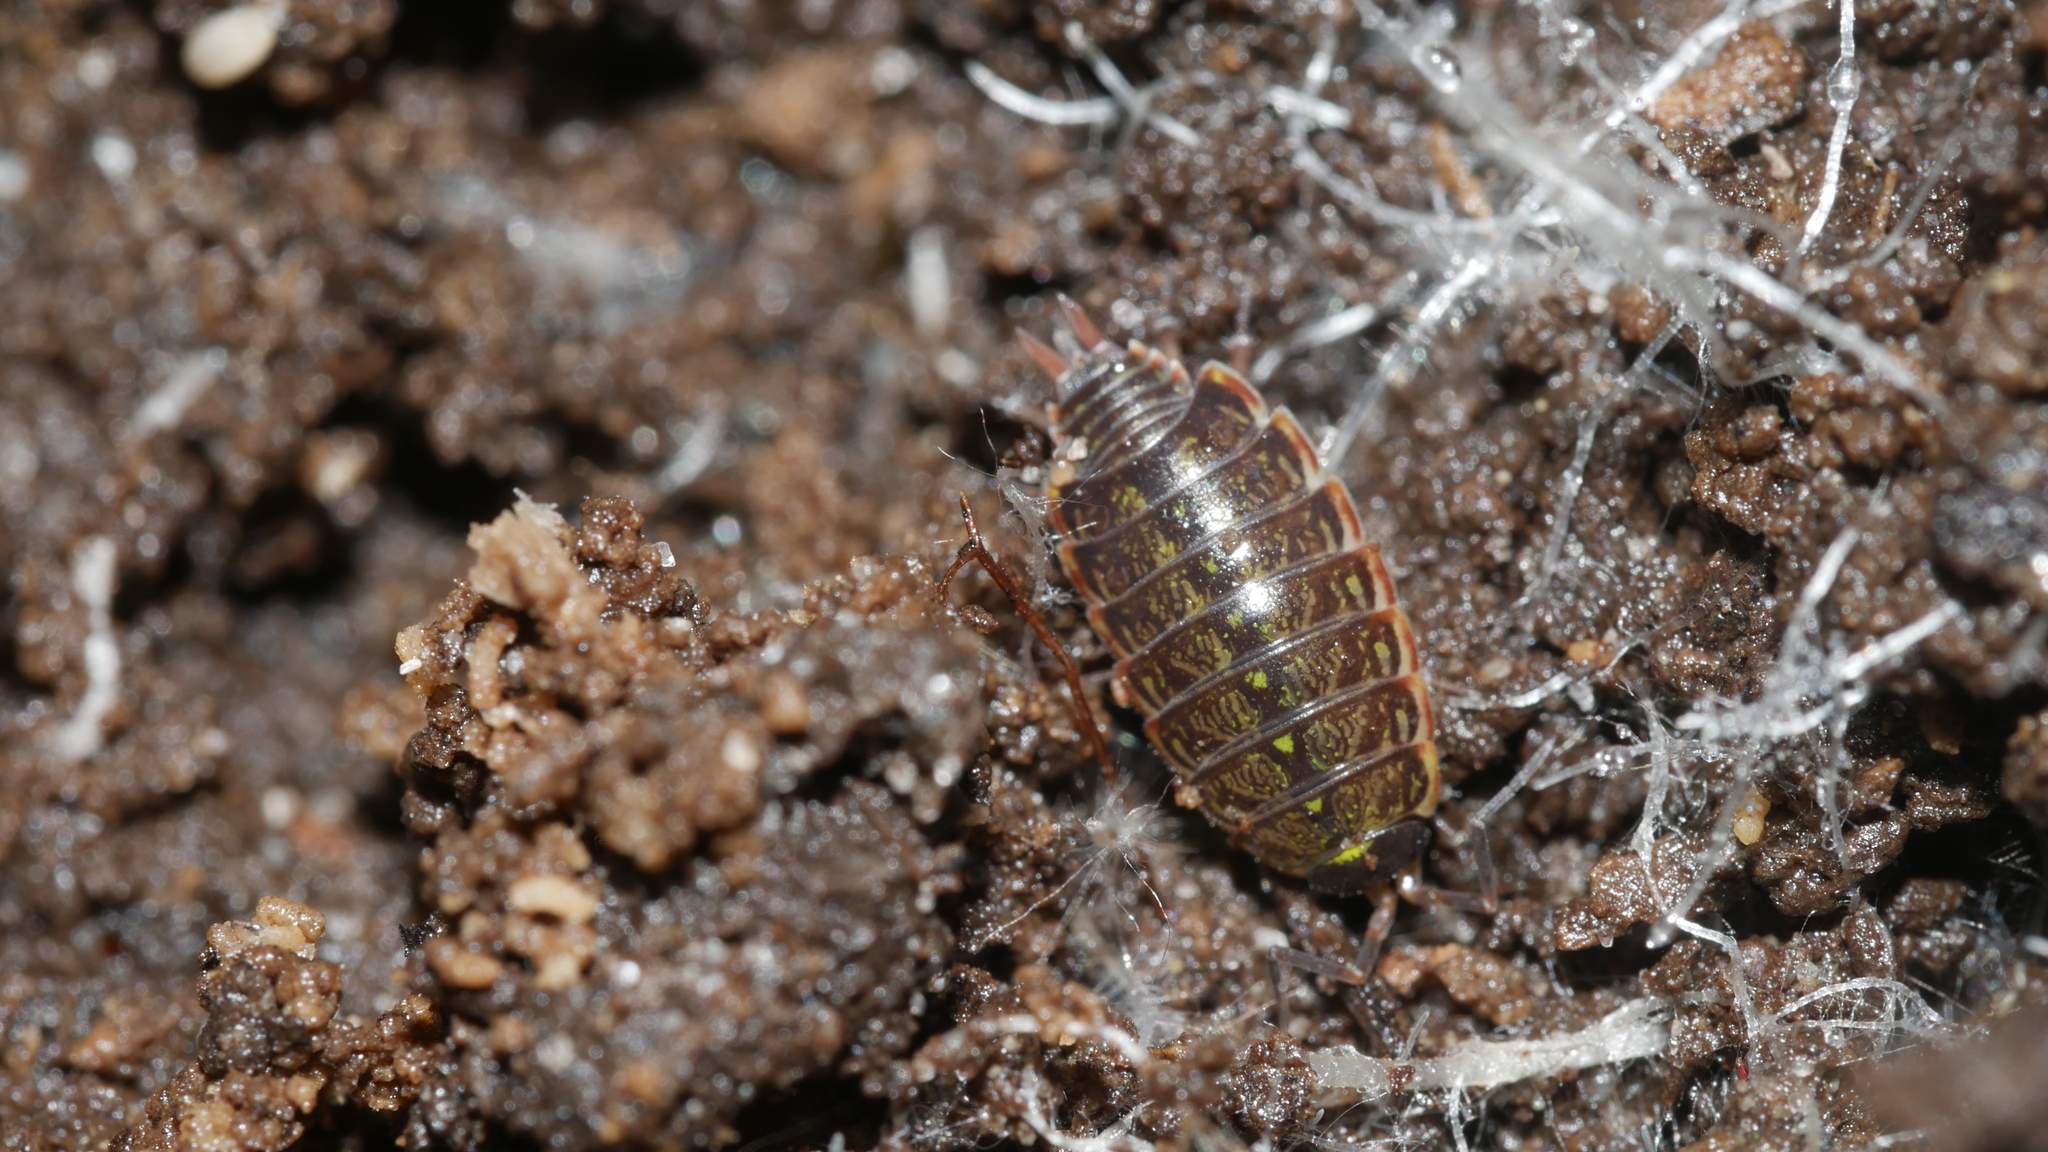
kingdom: Animalia
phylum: Arthropoda
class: Malacostraca
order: Isopoda
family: Philosciidae
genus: Philoscia
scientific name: Philoscia muscorum
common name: Common striped woodlouse
